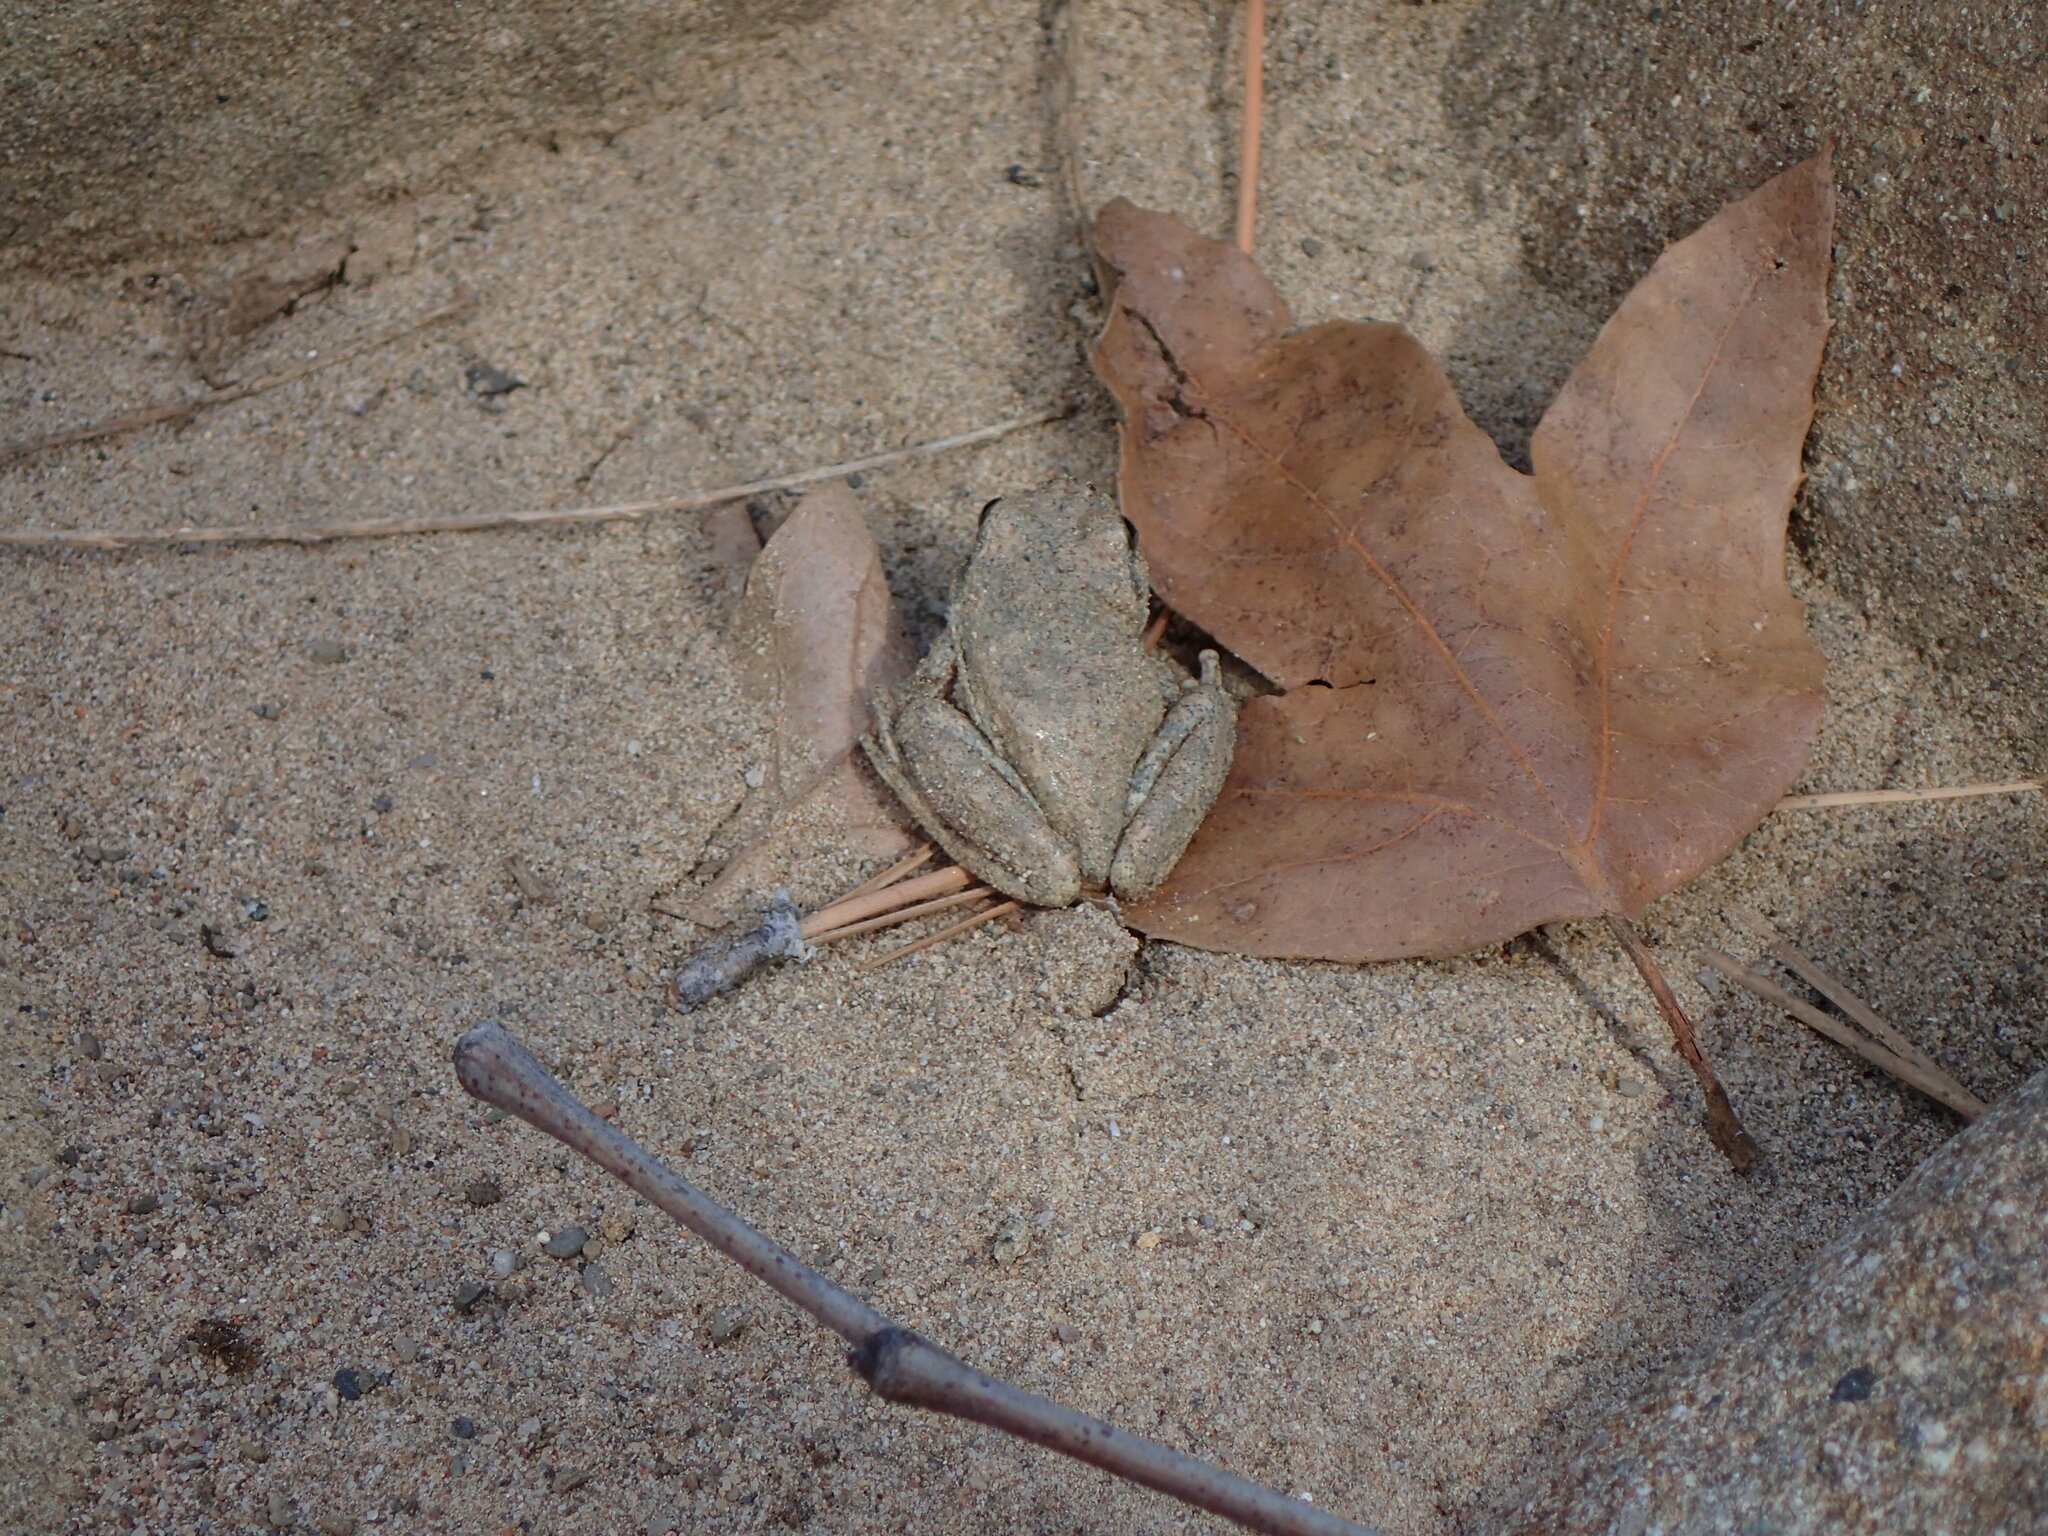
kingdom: Animalia
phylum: Chordata
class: Amphibia
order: Anura
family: Hylidae
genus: Pseudacris
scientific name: Pseudacris cadaverina
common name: California chorus frog
